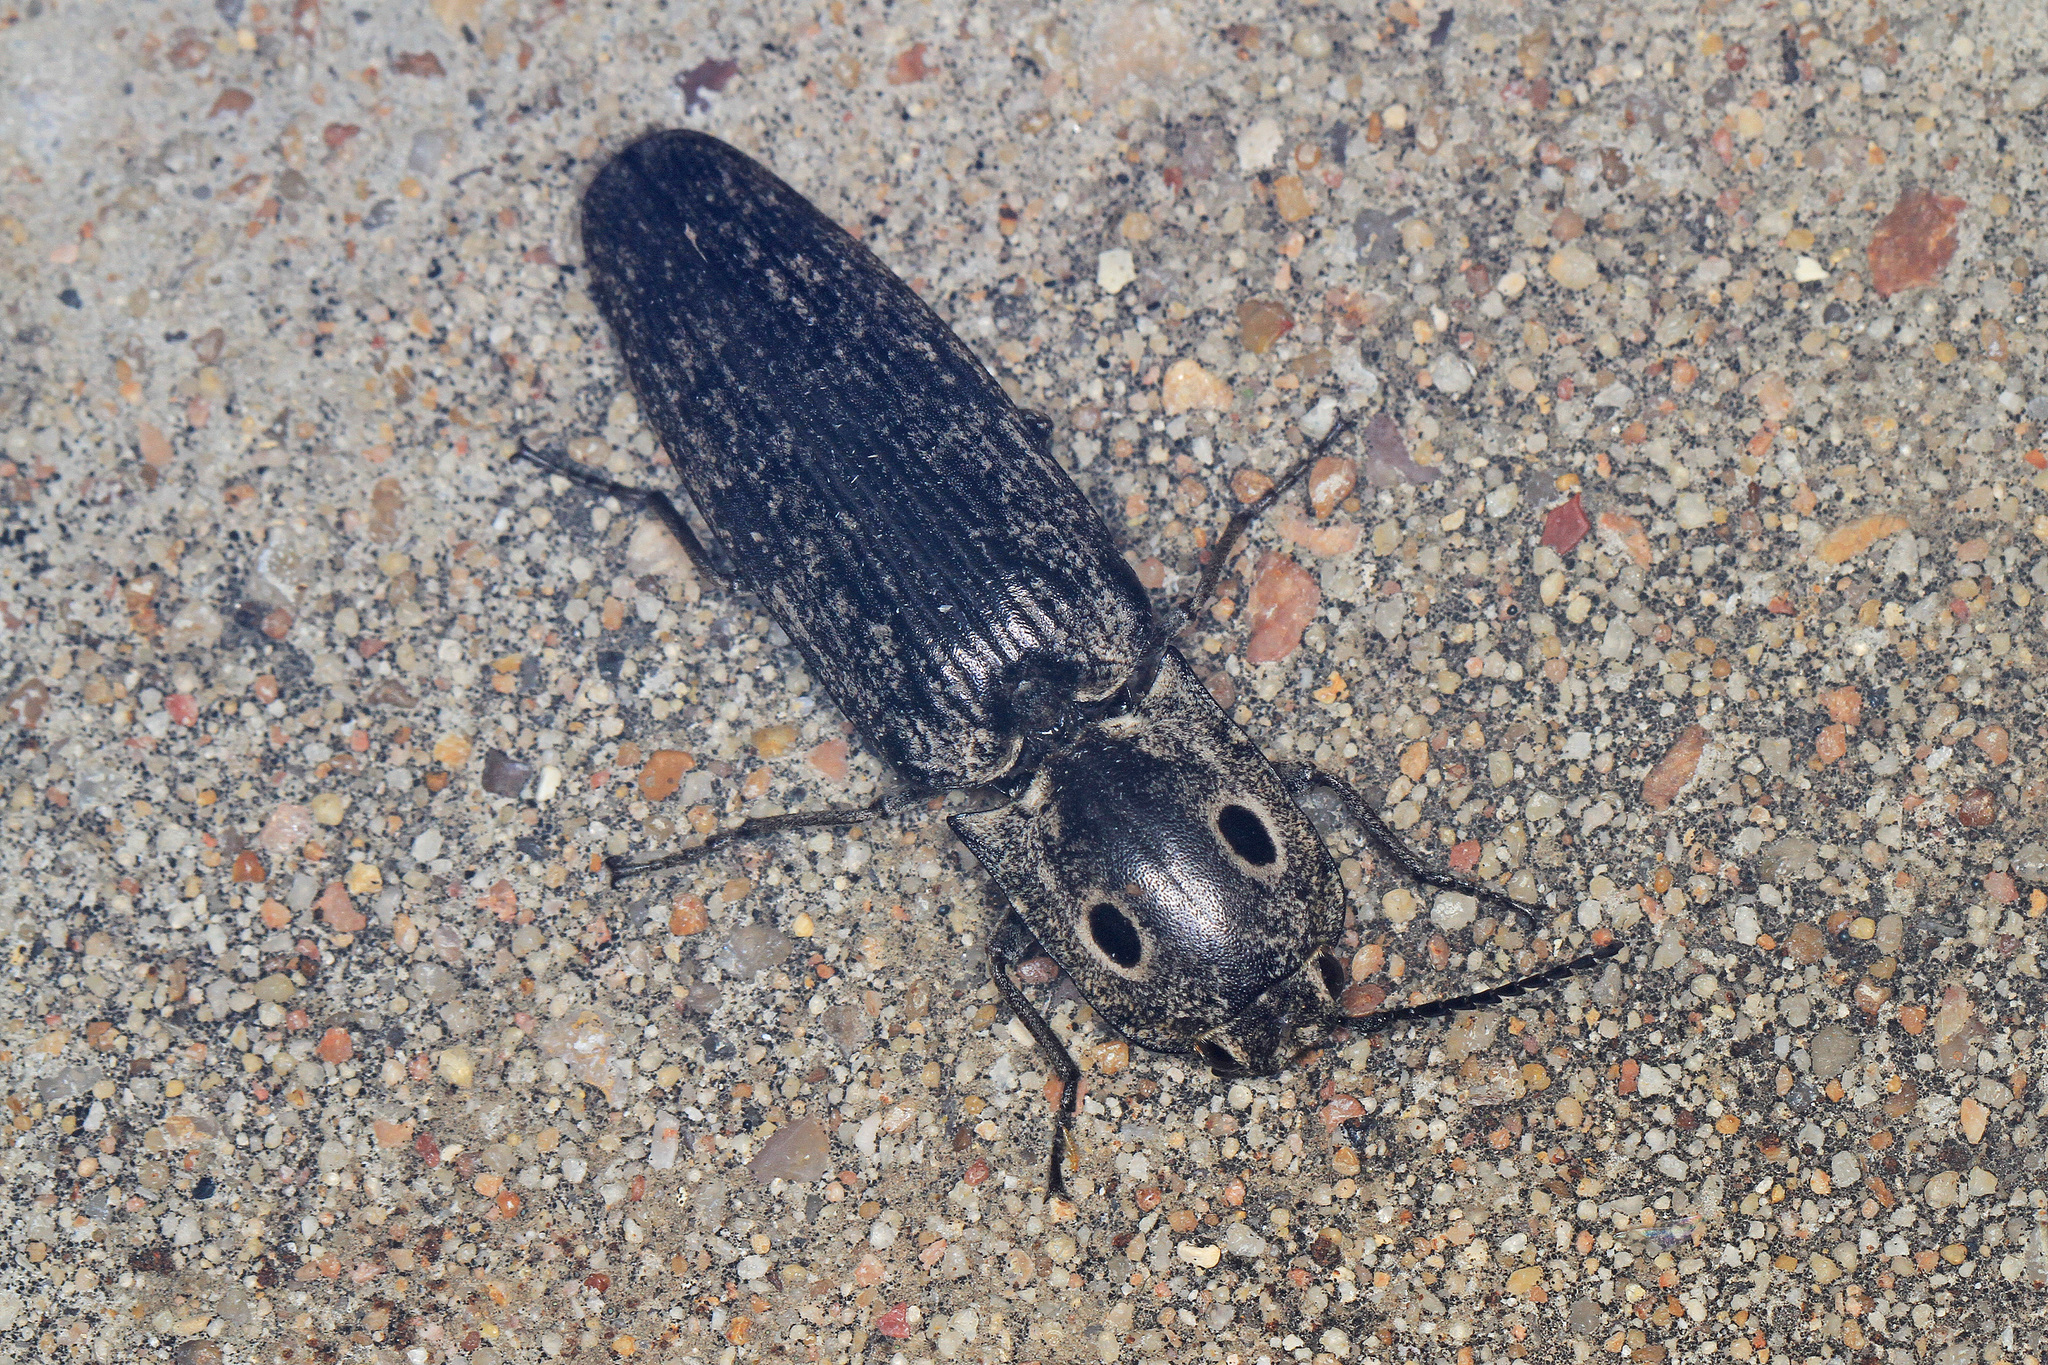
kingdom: Animalia
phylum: Arthropoda
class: Insecta
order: Coleoptera
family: Elateridae
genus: Alaus
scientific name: Alaus myops
